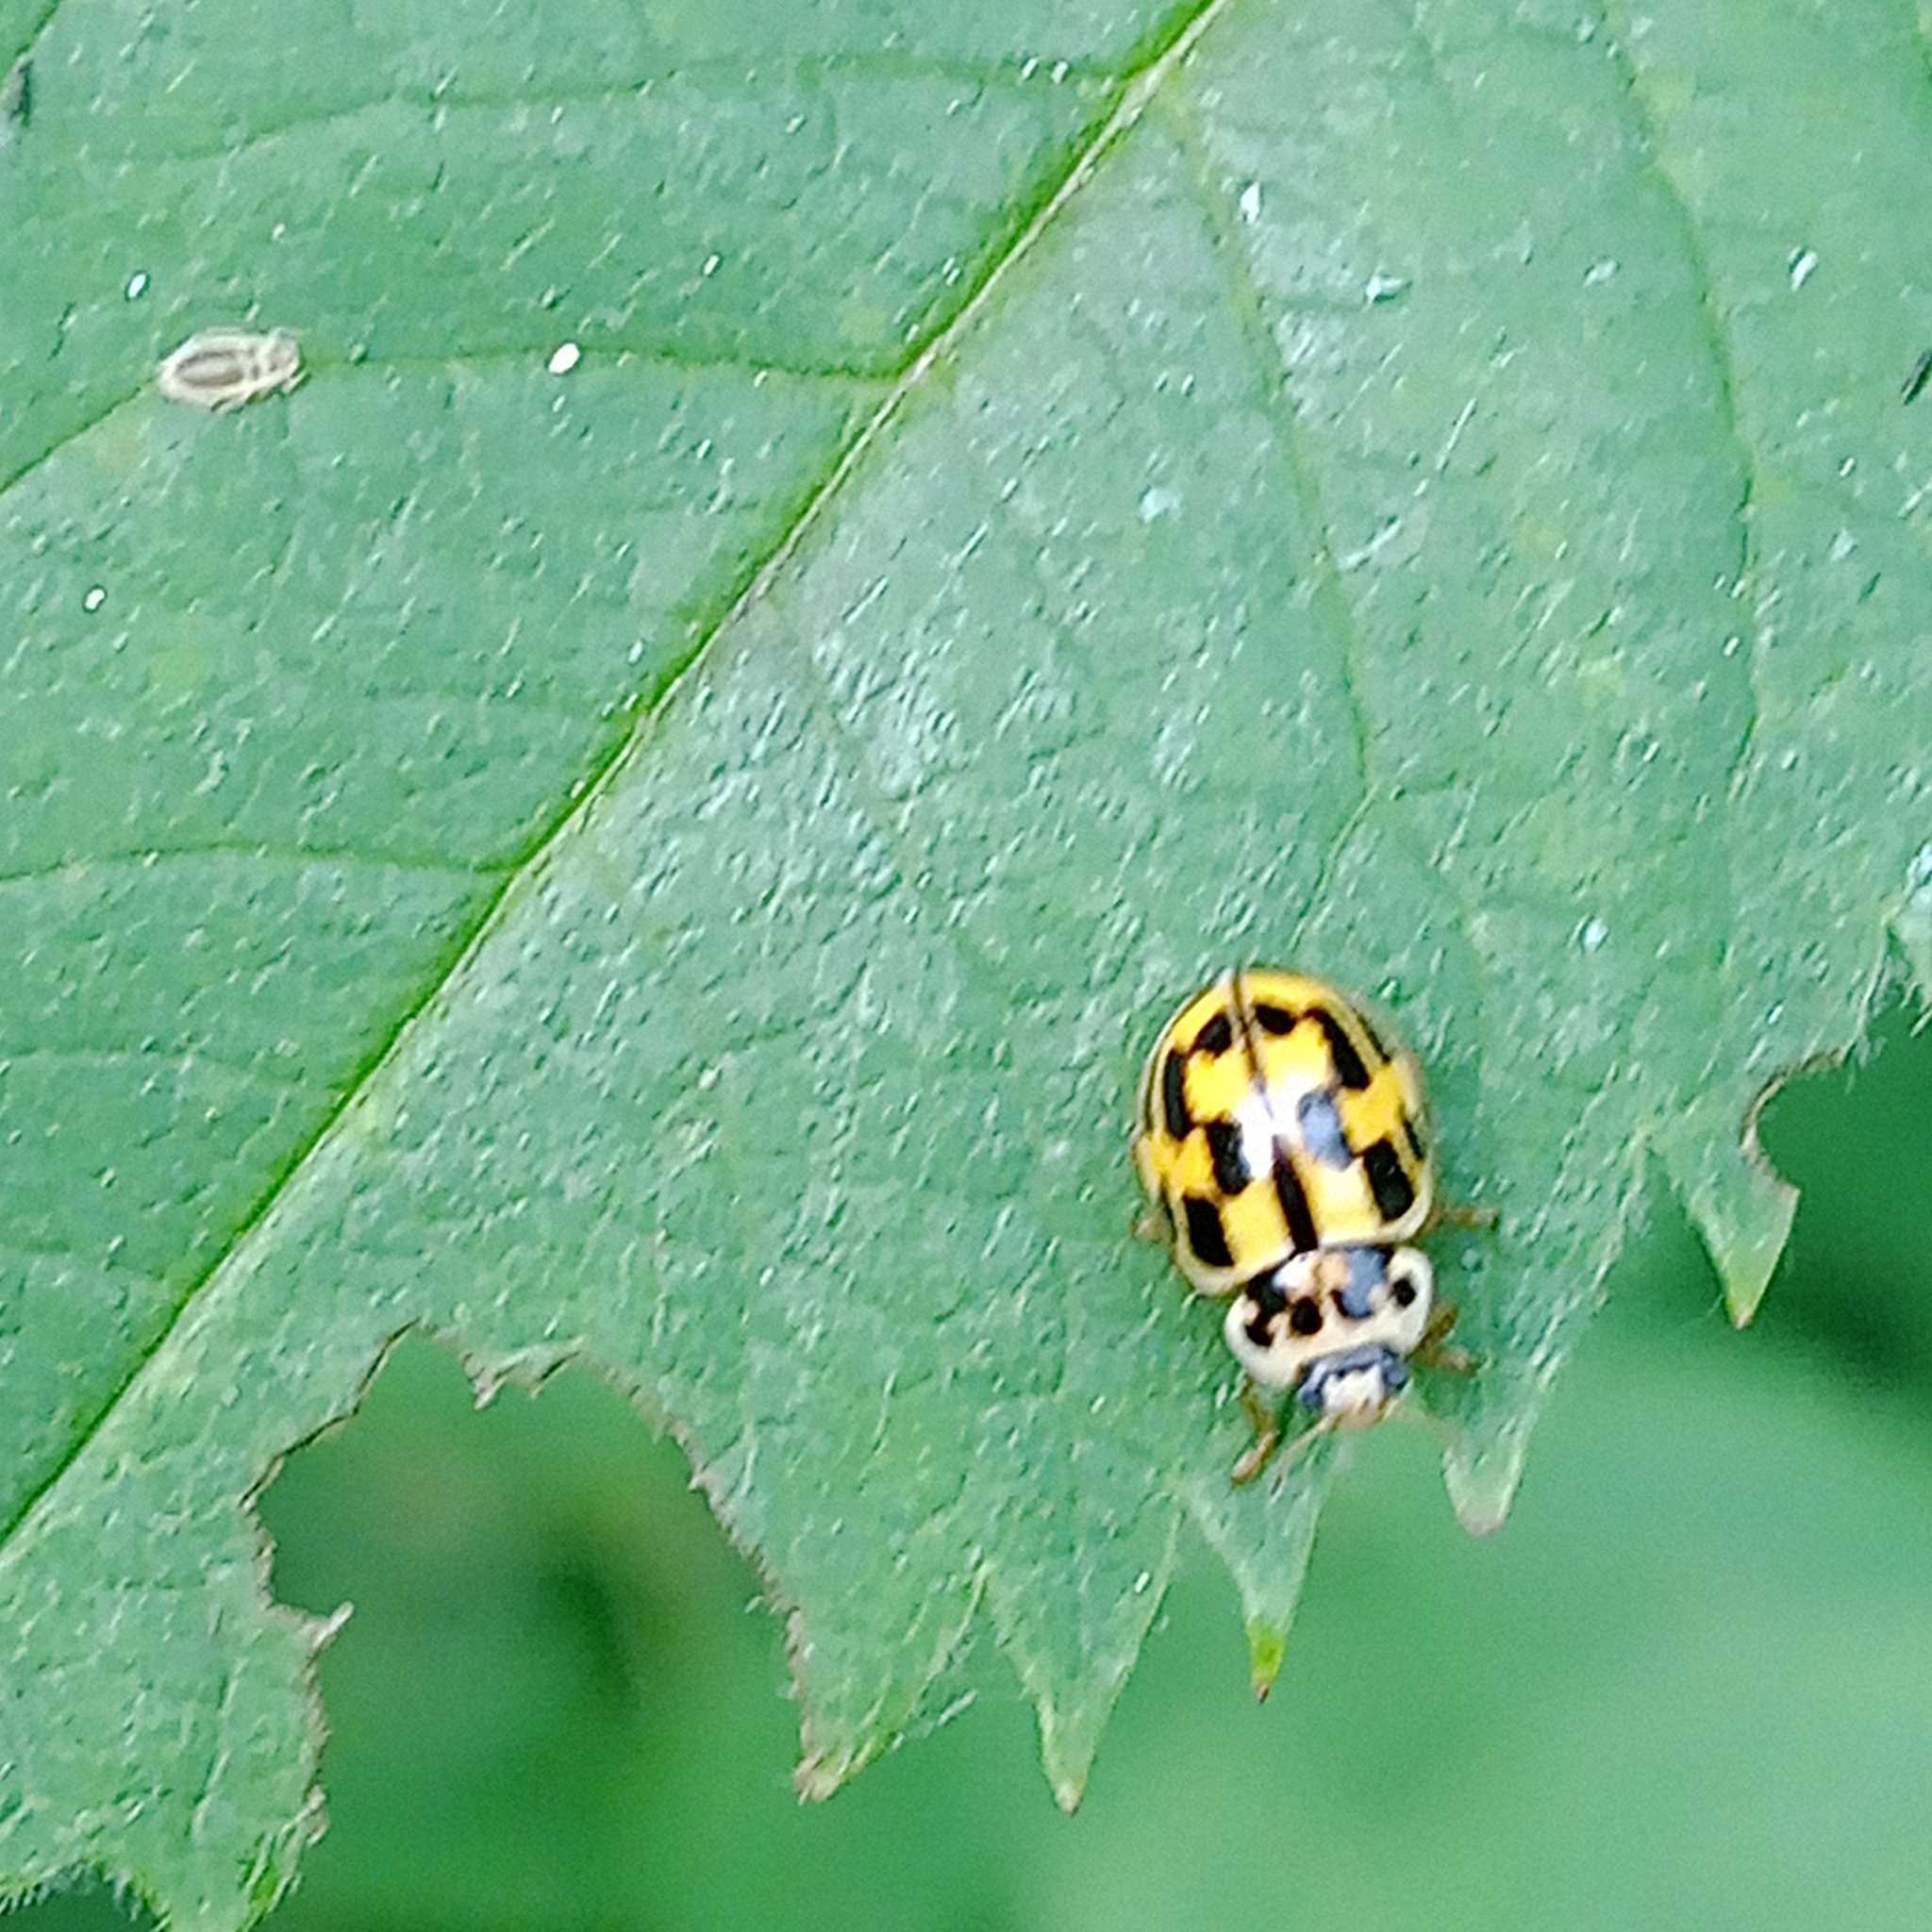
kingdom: Animalia
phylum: Arthropoda
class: Insecta
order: Coleoptera
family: Coccinellidae
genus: Propylaea
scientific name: Propylaea quatuordecimpunctata
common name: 14-spotted ladybird beetle
